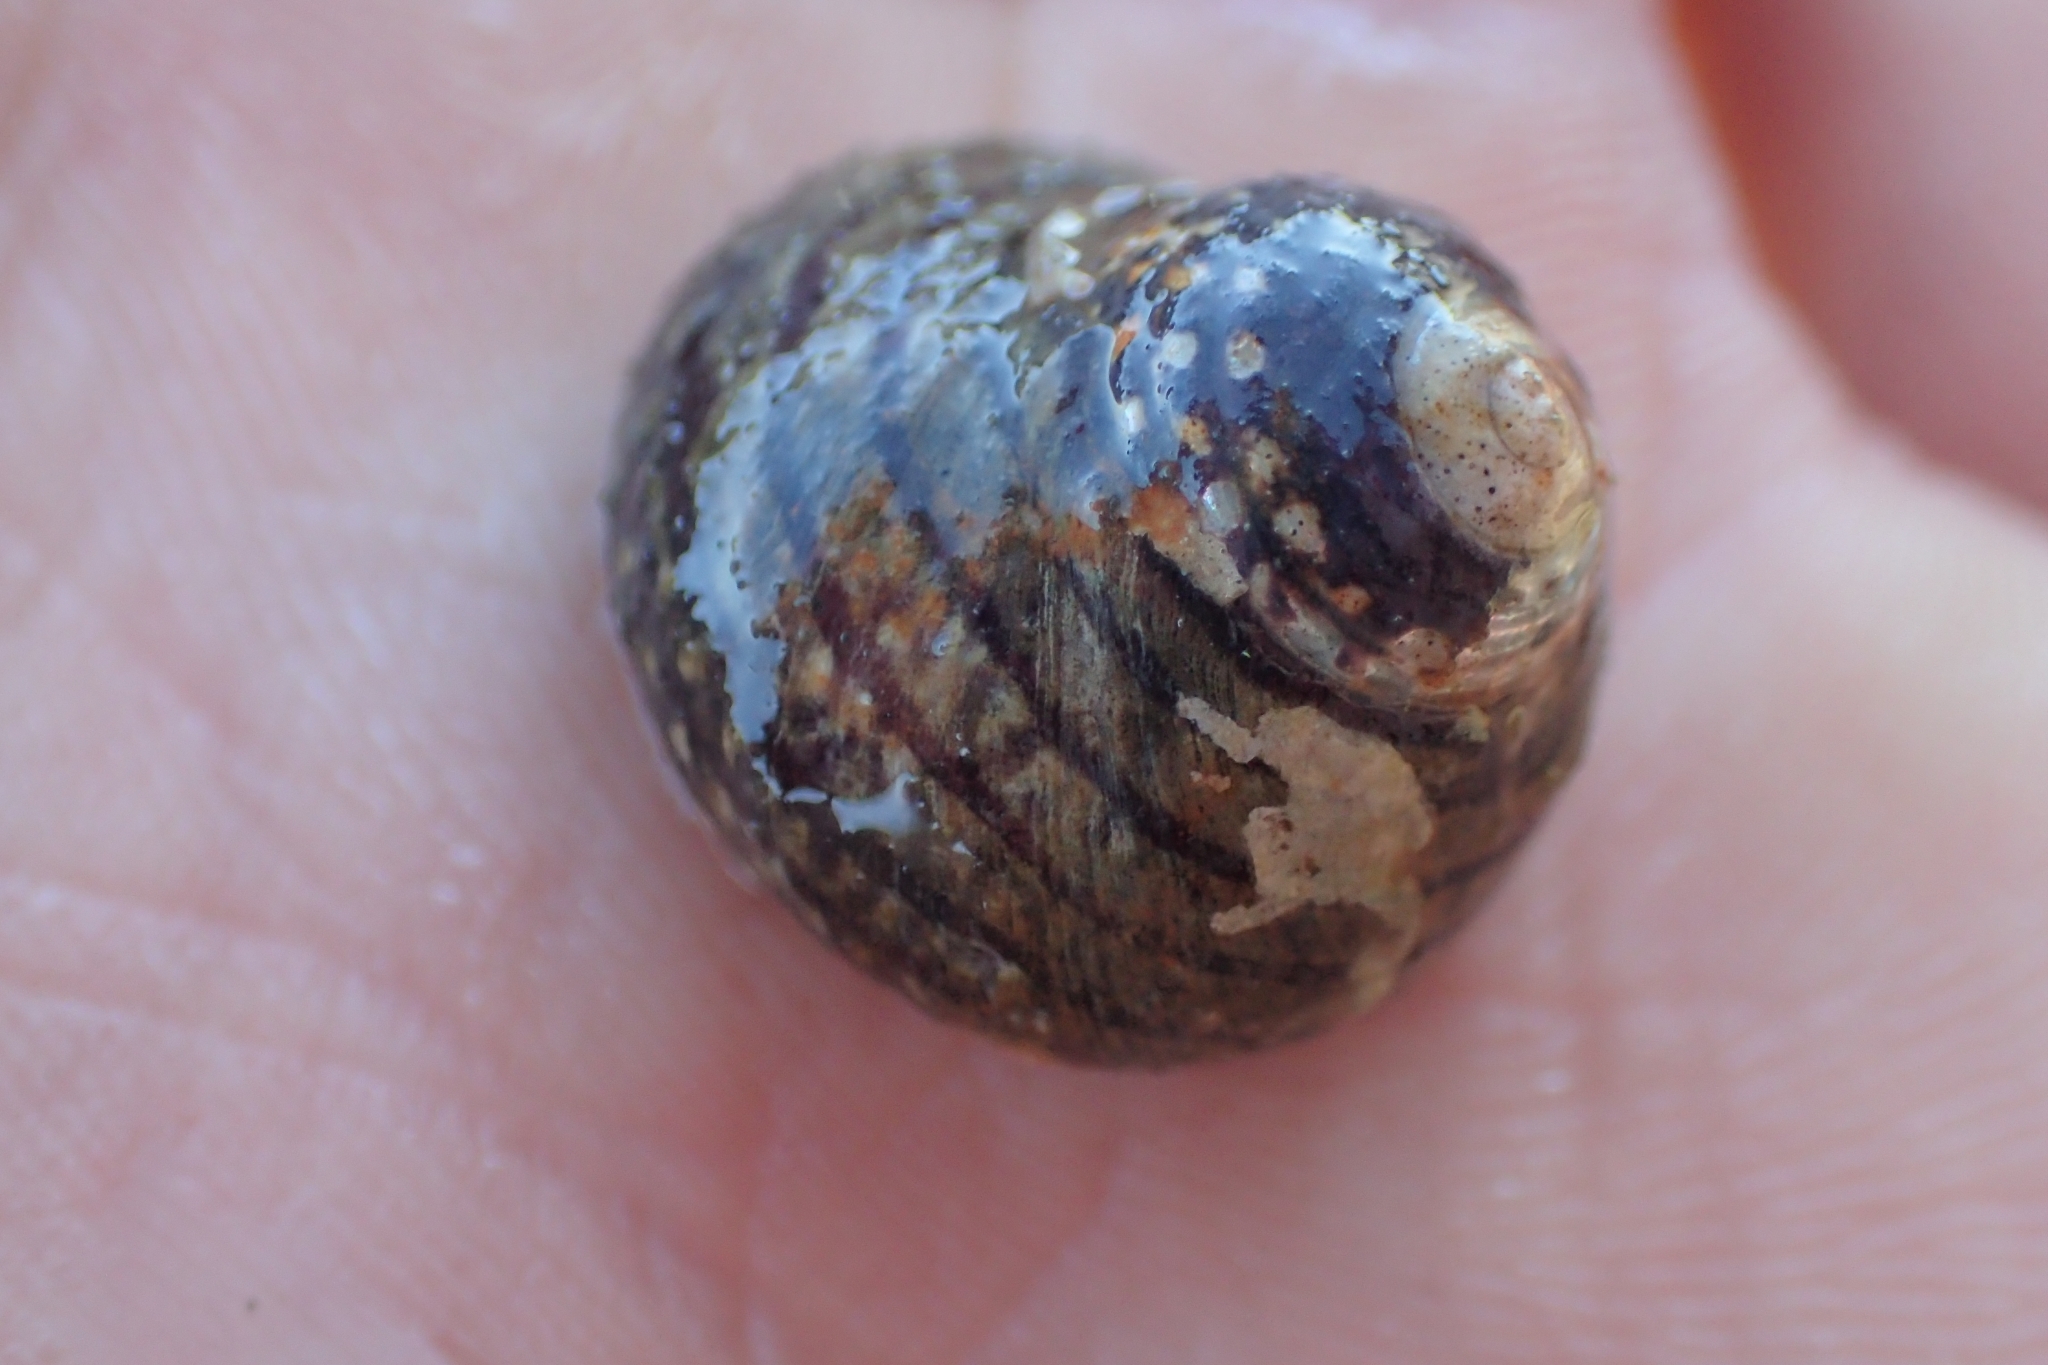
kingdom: Animalia
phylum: Mollusca
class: Gastropoda
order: Trochida
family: Trochidae
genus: Diloma
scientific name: Diloma aethiops
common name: Scorched monodont
